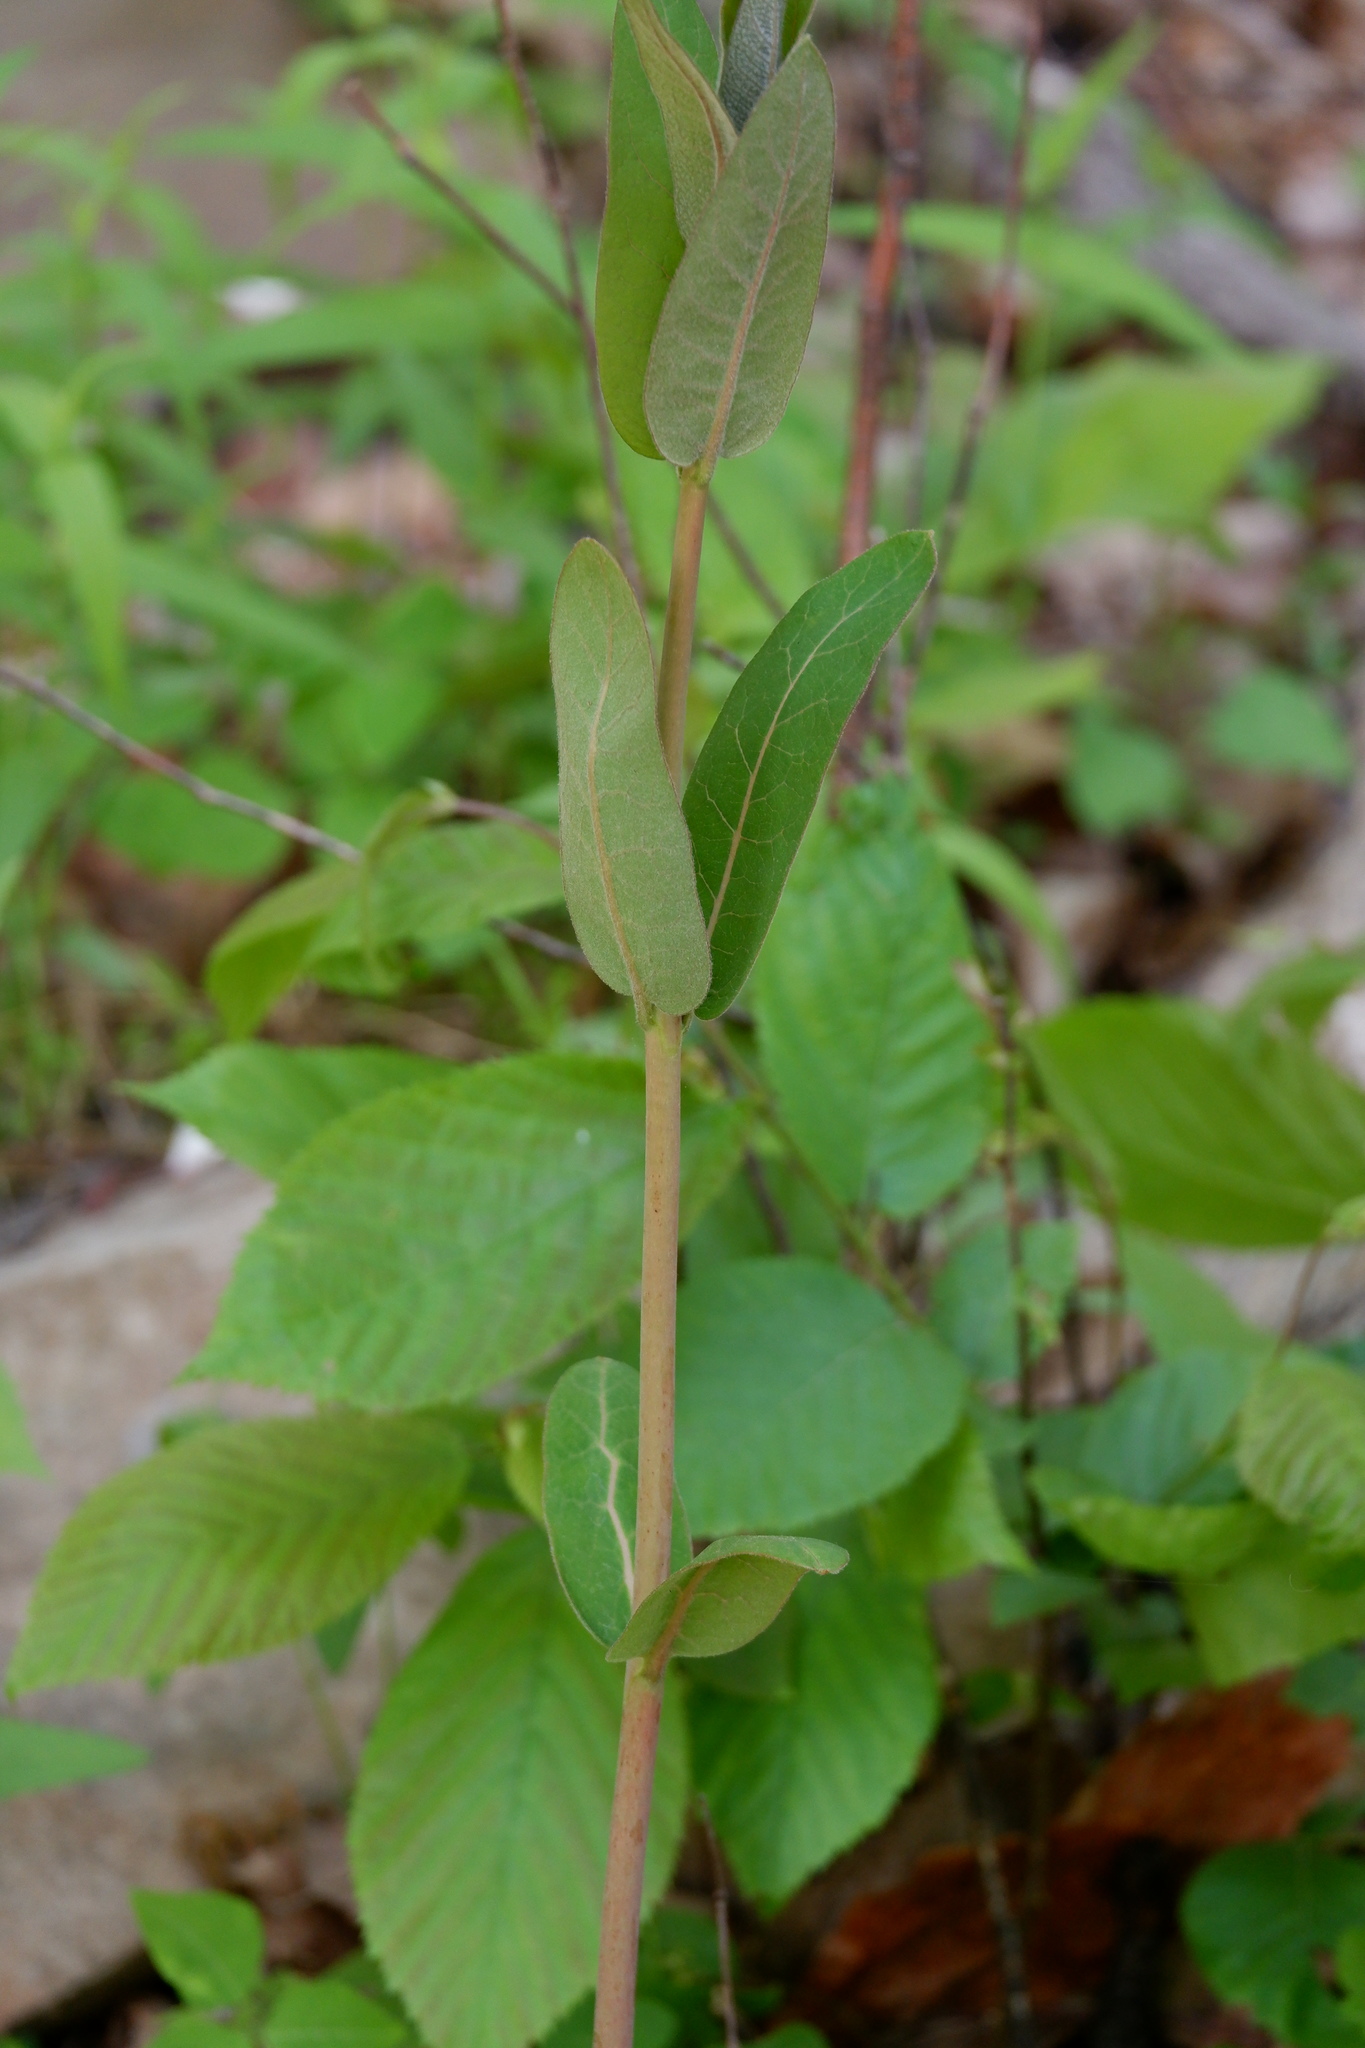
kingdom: Plantae
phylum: Tracheophyta
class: Magnoliopsida
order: Gentianales
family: Apocynaceae
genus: Apocynum
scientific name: Apocynum cannabinum
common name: Hemp dogbane
